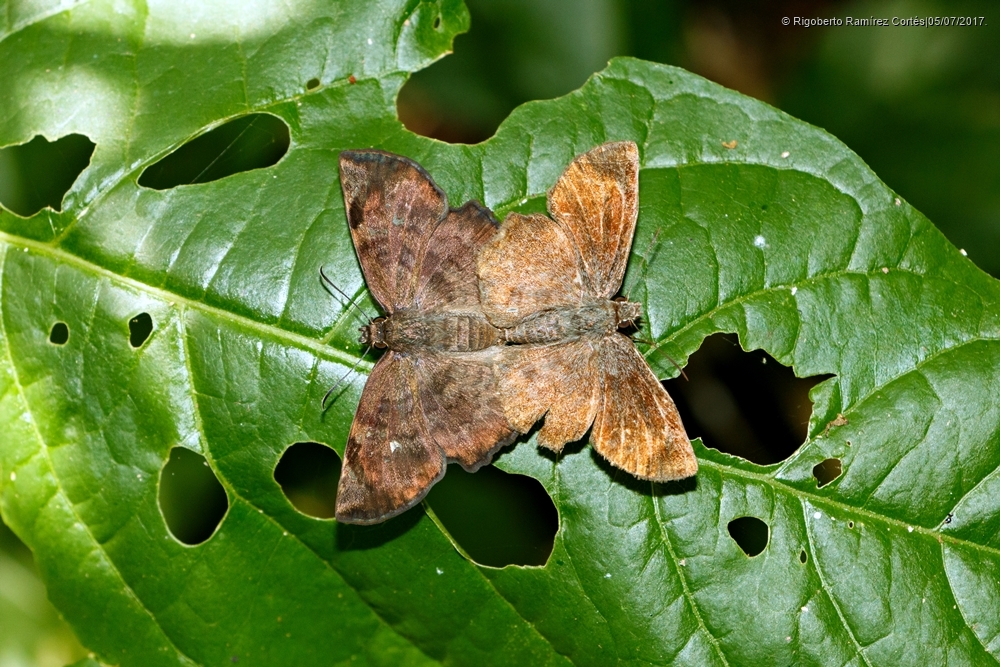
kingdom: Animalia
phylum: Arthropoda
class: Insecta
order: Lepidoptera
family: Hesperiidae
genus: Antigonus
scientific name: Antigonus erosus
